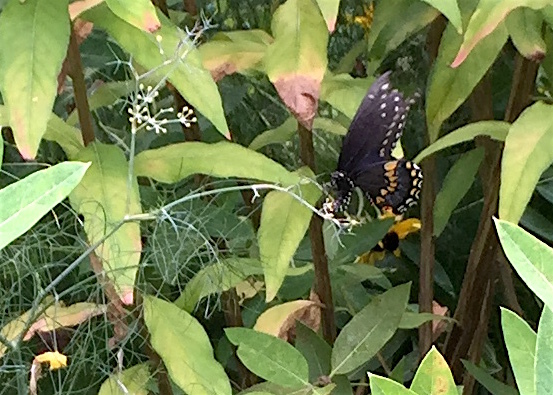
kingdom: Animalia
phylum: Arthropoda
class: Insecta
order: Lepidoptera
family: Papilionidae
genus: Papilio
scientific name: Papilio polyxenes
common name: Black swallowtail
